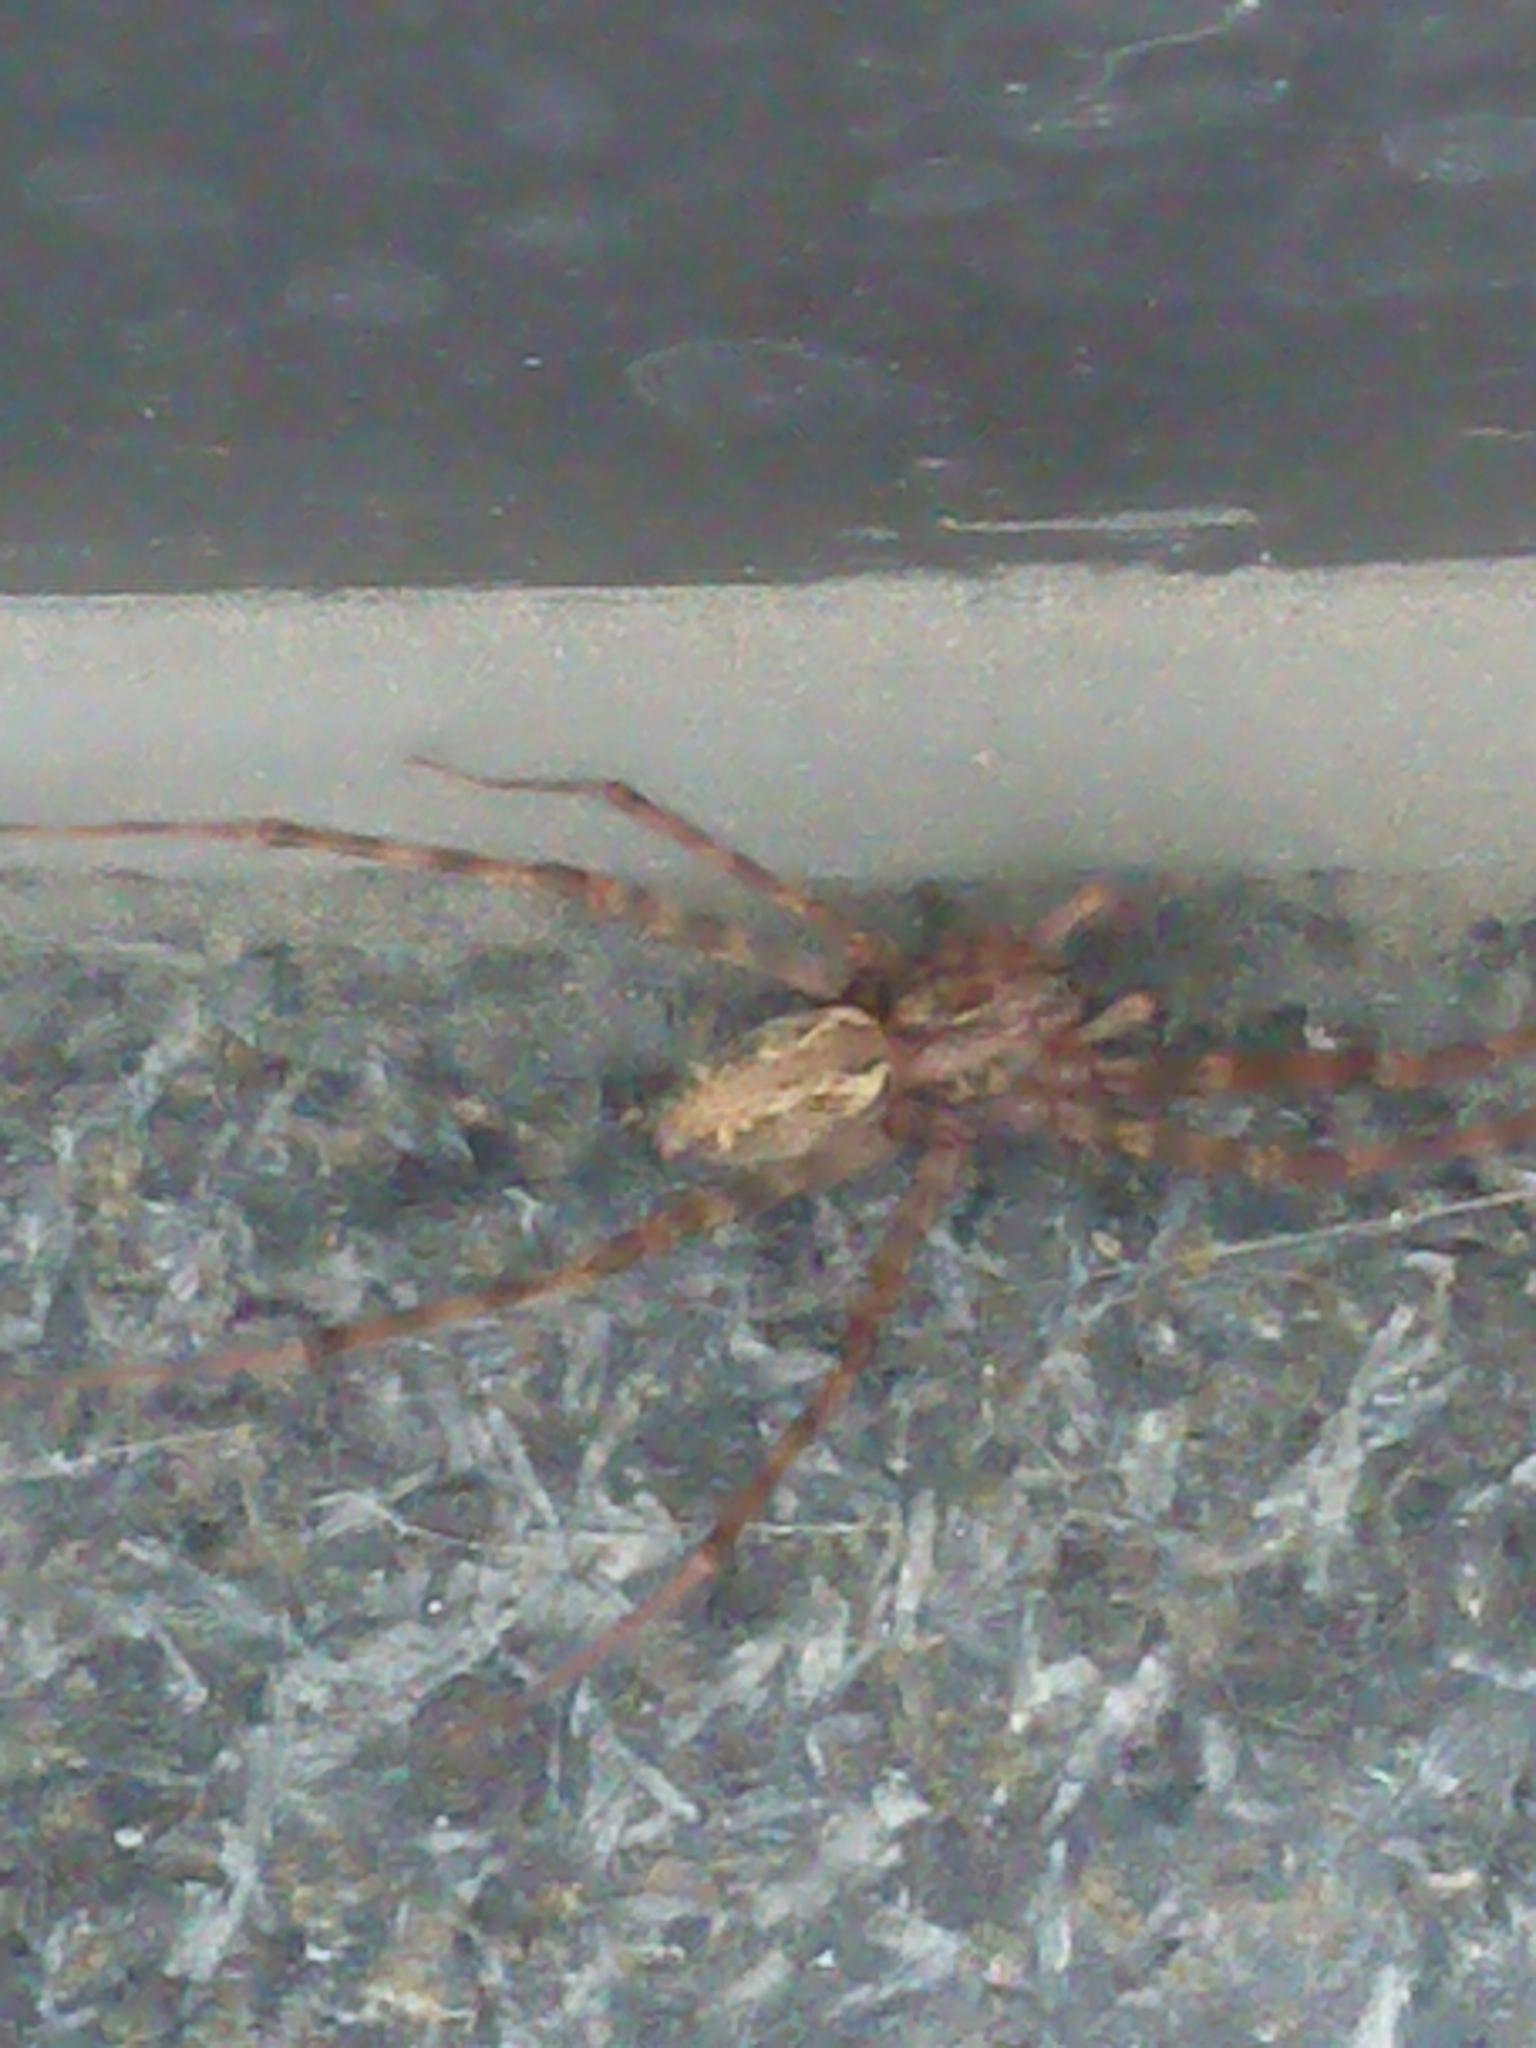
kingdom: Animalia
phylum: Arthropoda
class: Arachnida
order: Araneae
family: Stiphidiidae
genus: Stiphidion
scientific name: Stiphidion facetum
